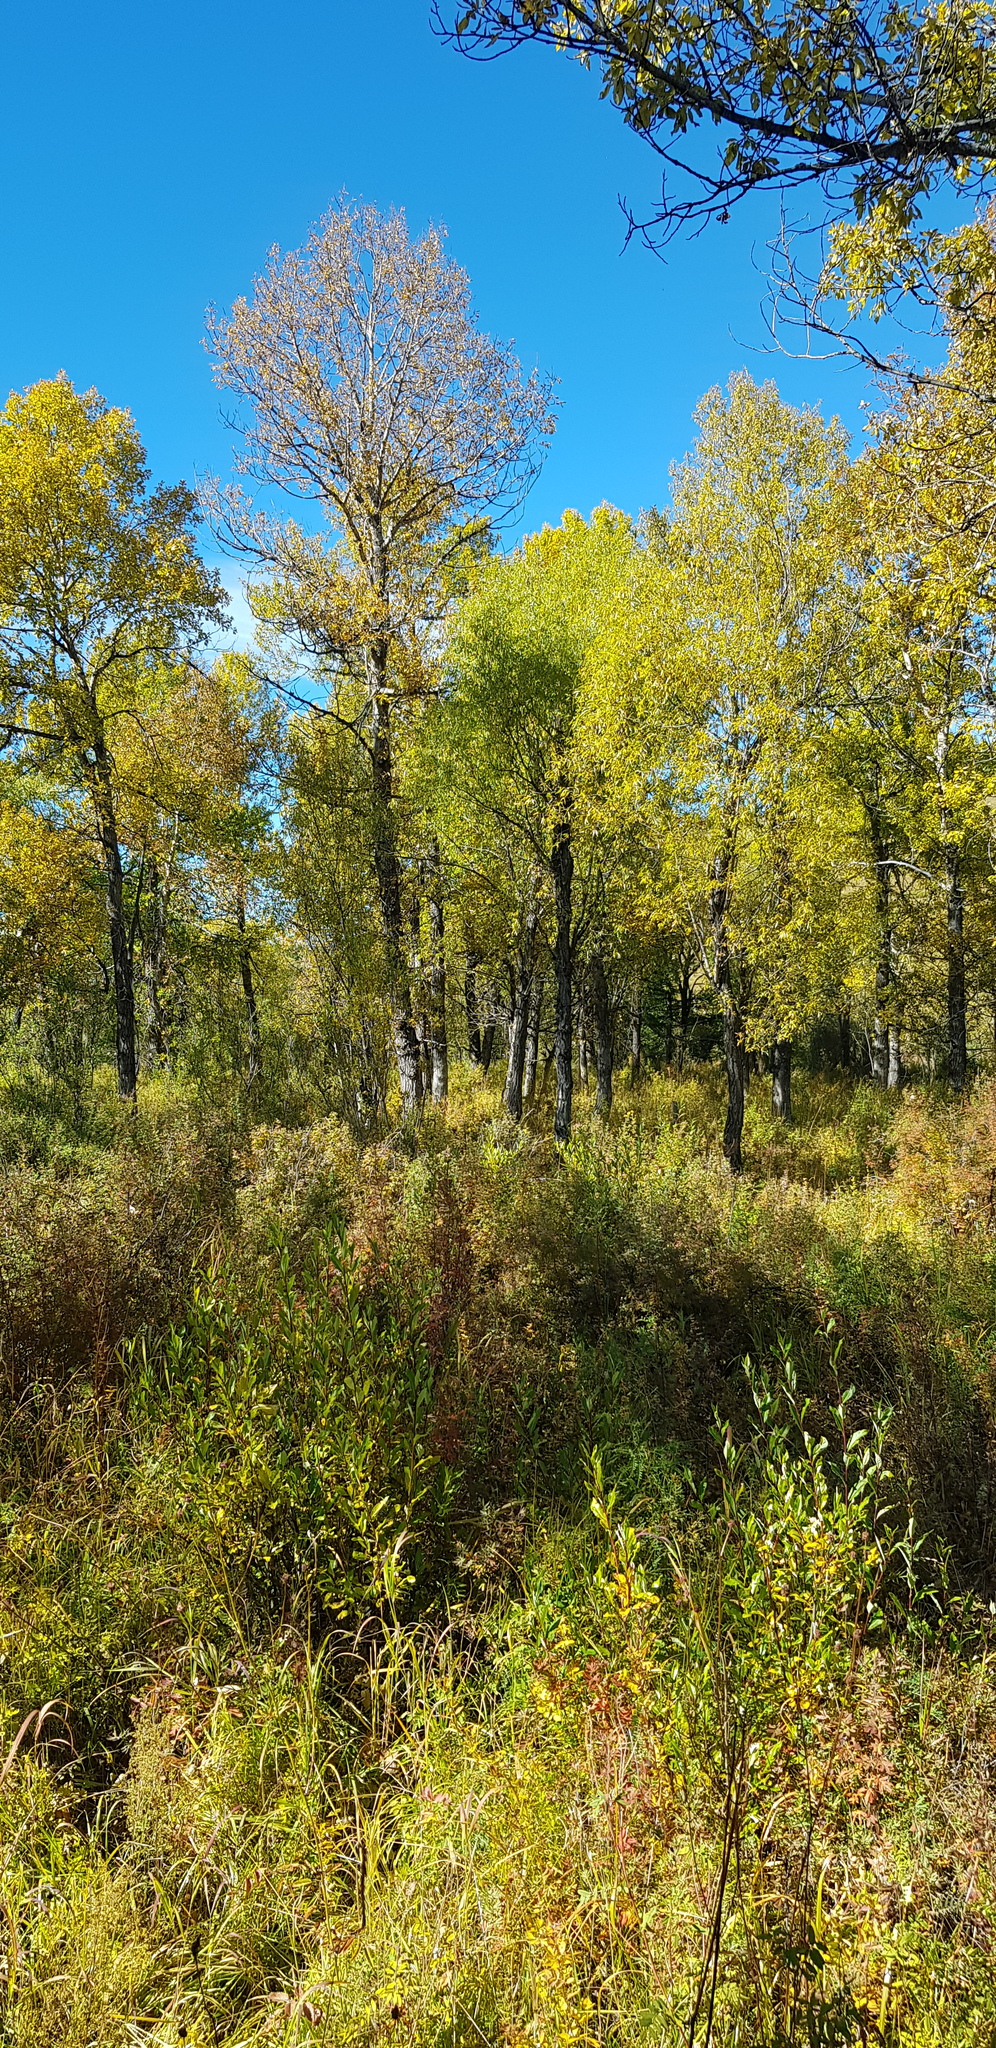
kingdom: Plantae
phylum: Tracheophyta
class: Magnoliopsida
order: Malpighiales
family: Salicaceae
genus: Populus
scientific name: Populus tremula
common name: European aspen
